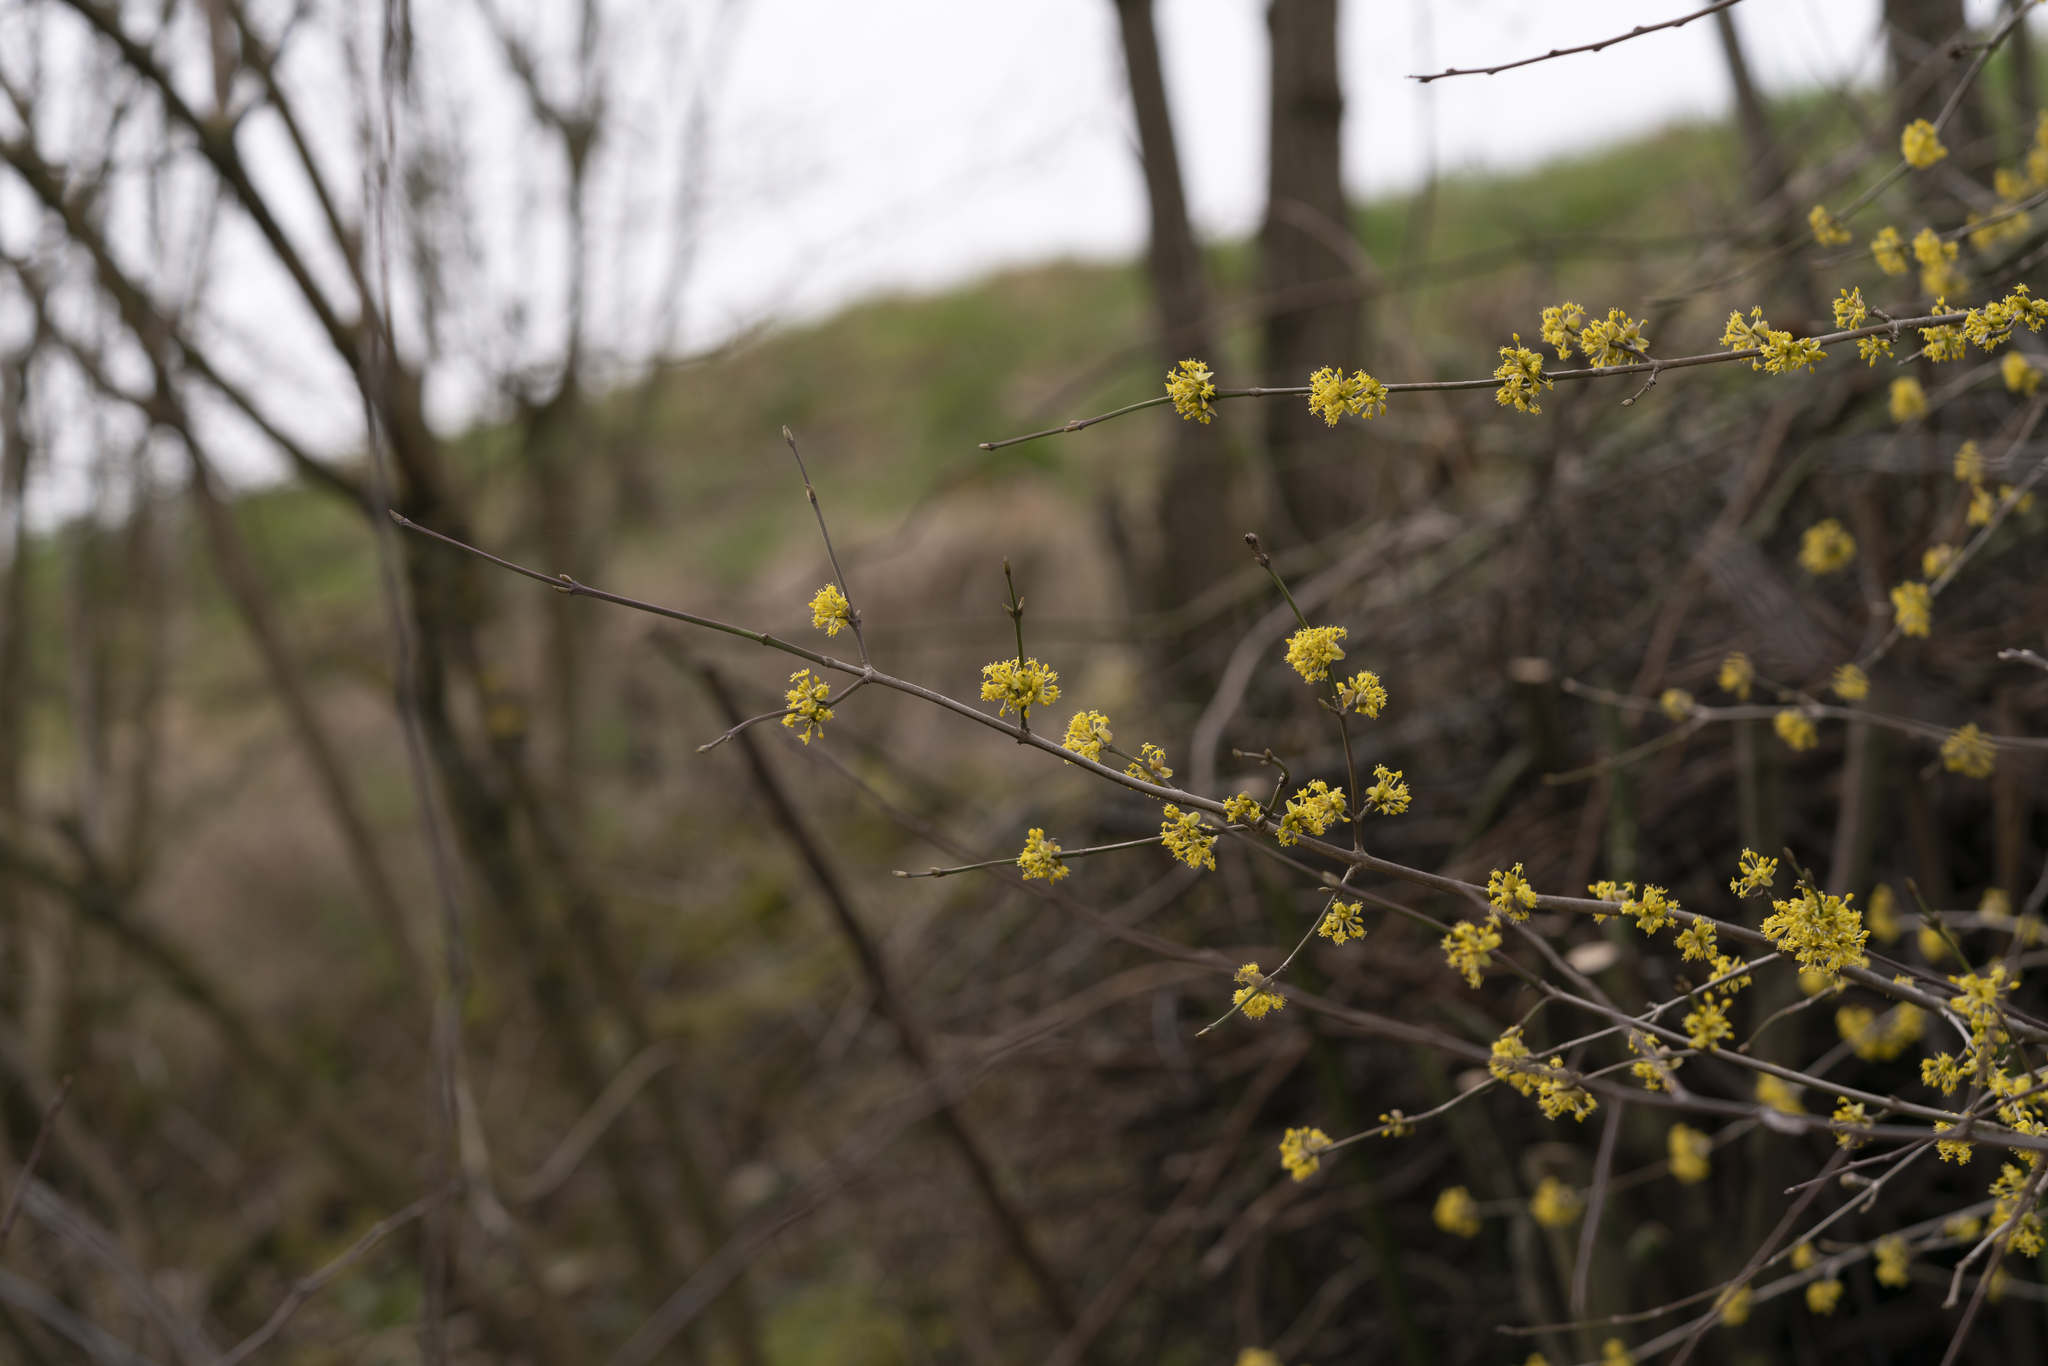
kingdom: Plantae
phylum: Tracheophyta
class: Magnoliopsida
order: Cornales
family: Cornaceae
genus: Cornus
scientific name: Cornus mas
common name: Cornelian-cherry
